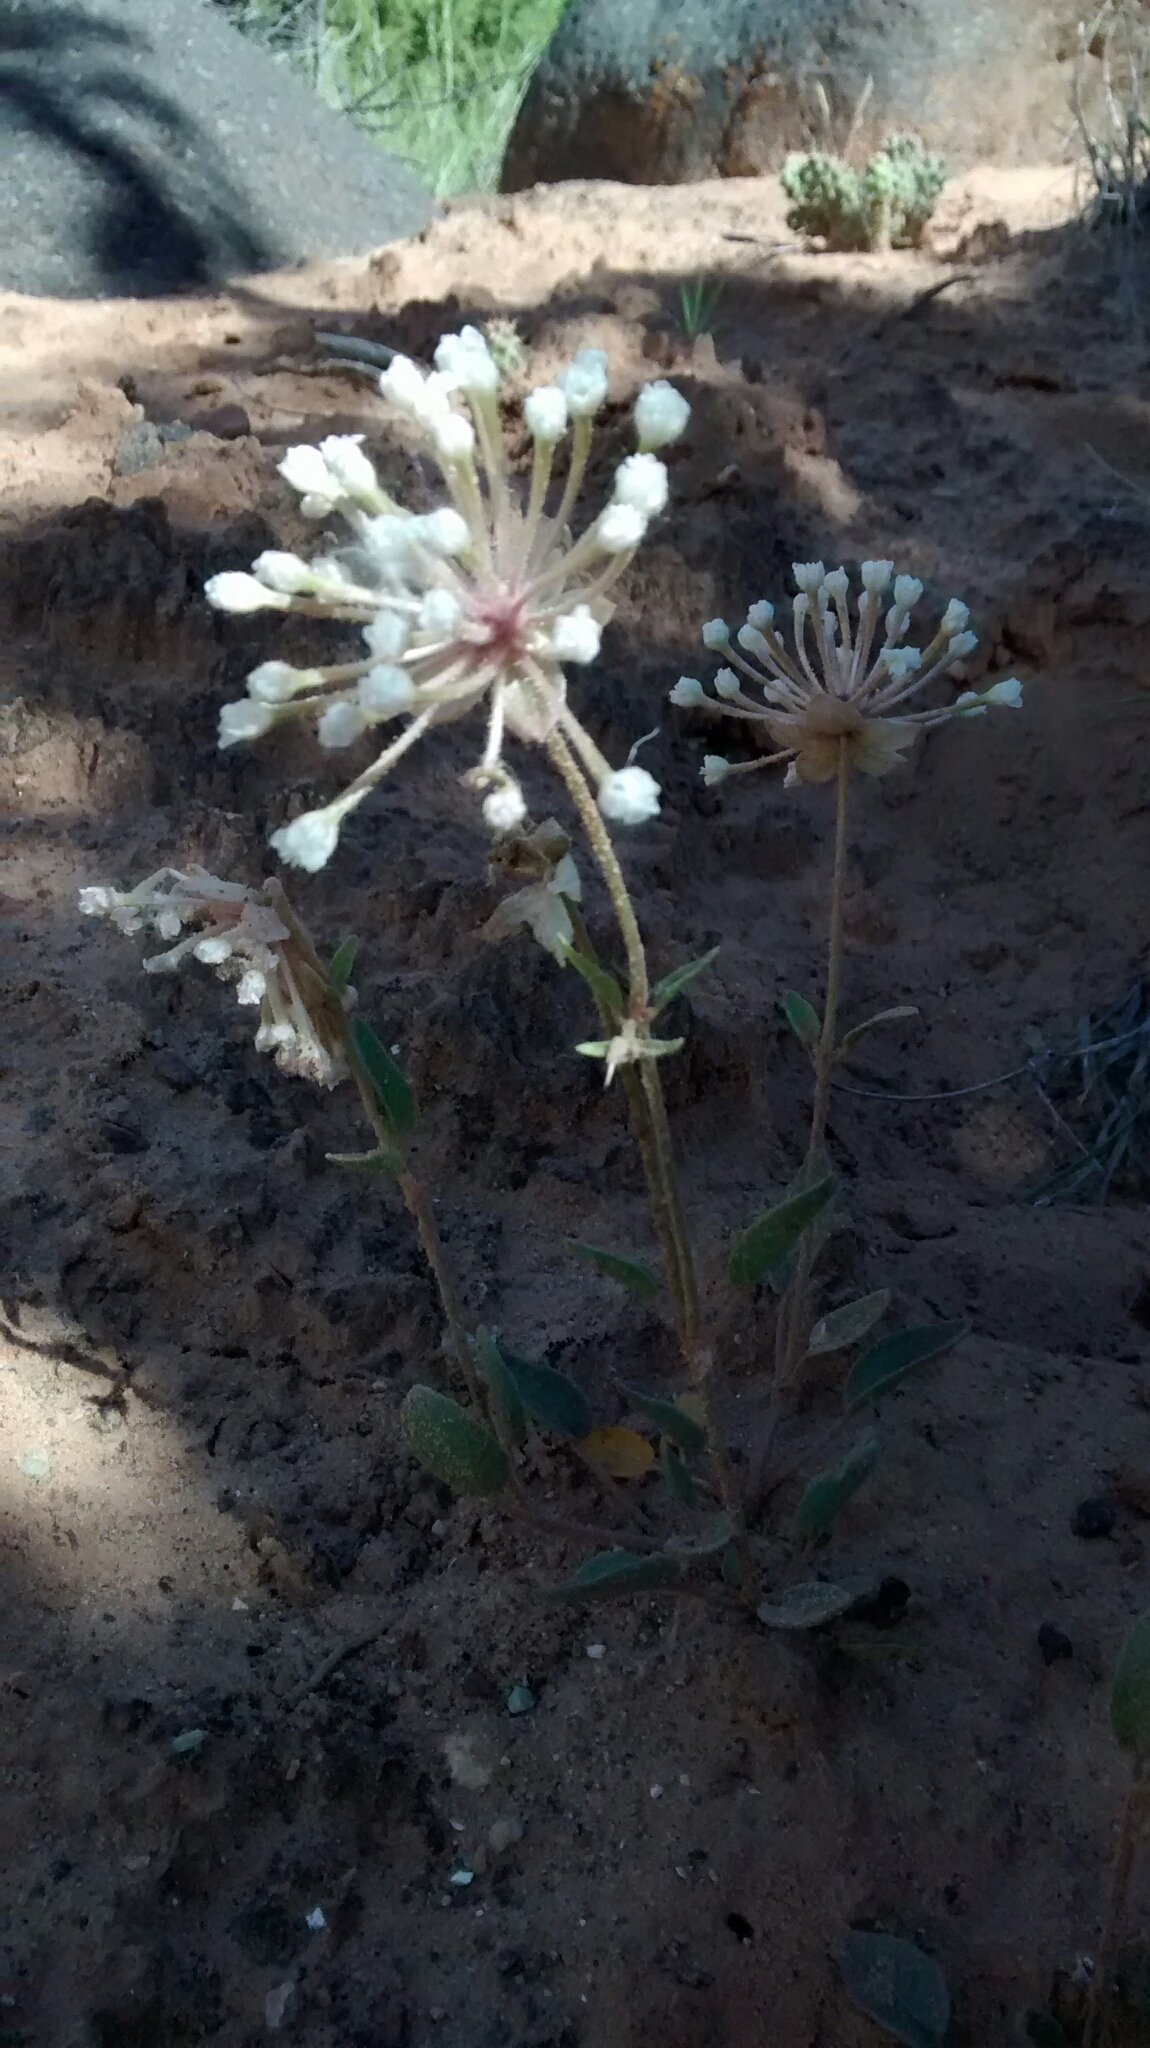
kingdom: Plantae
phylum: Tracheophyta
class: Magnoliopsida
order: Caryophyllales
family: Nyctaginaceae
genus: Abronia
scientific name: Abronia elliptica
